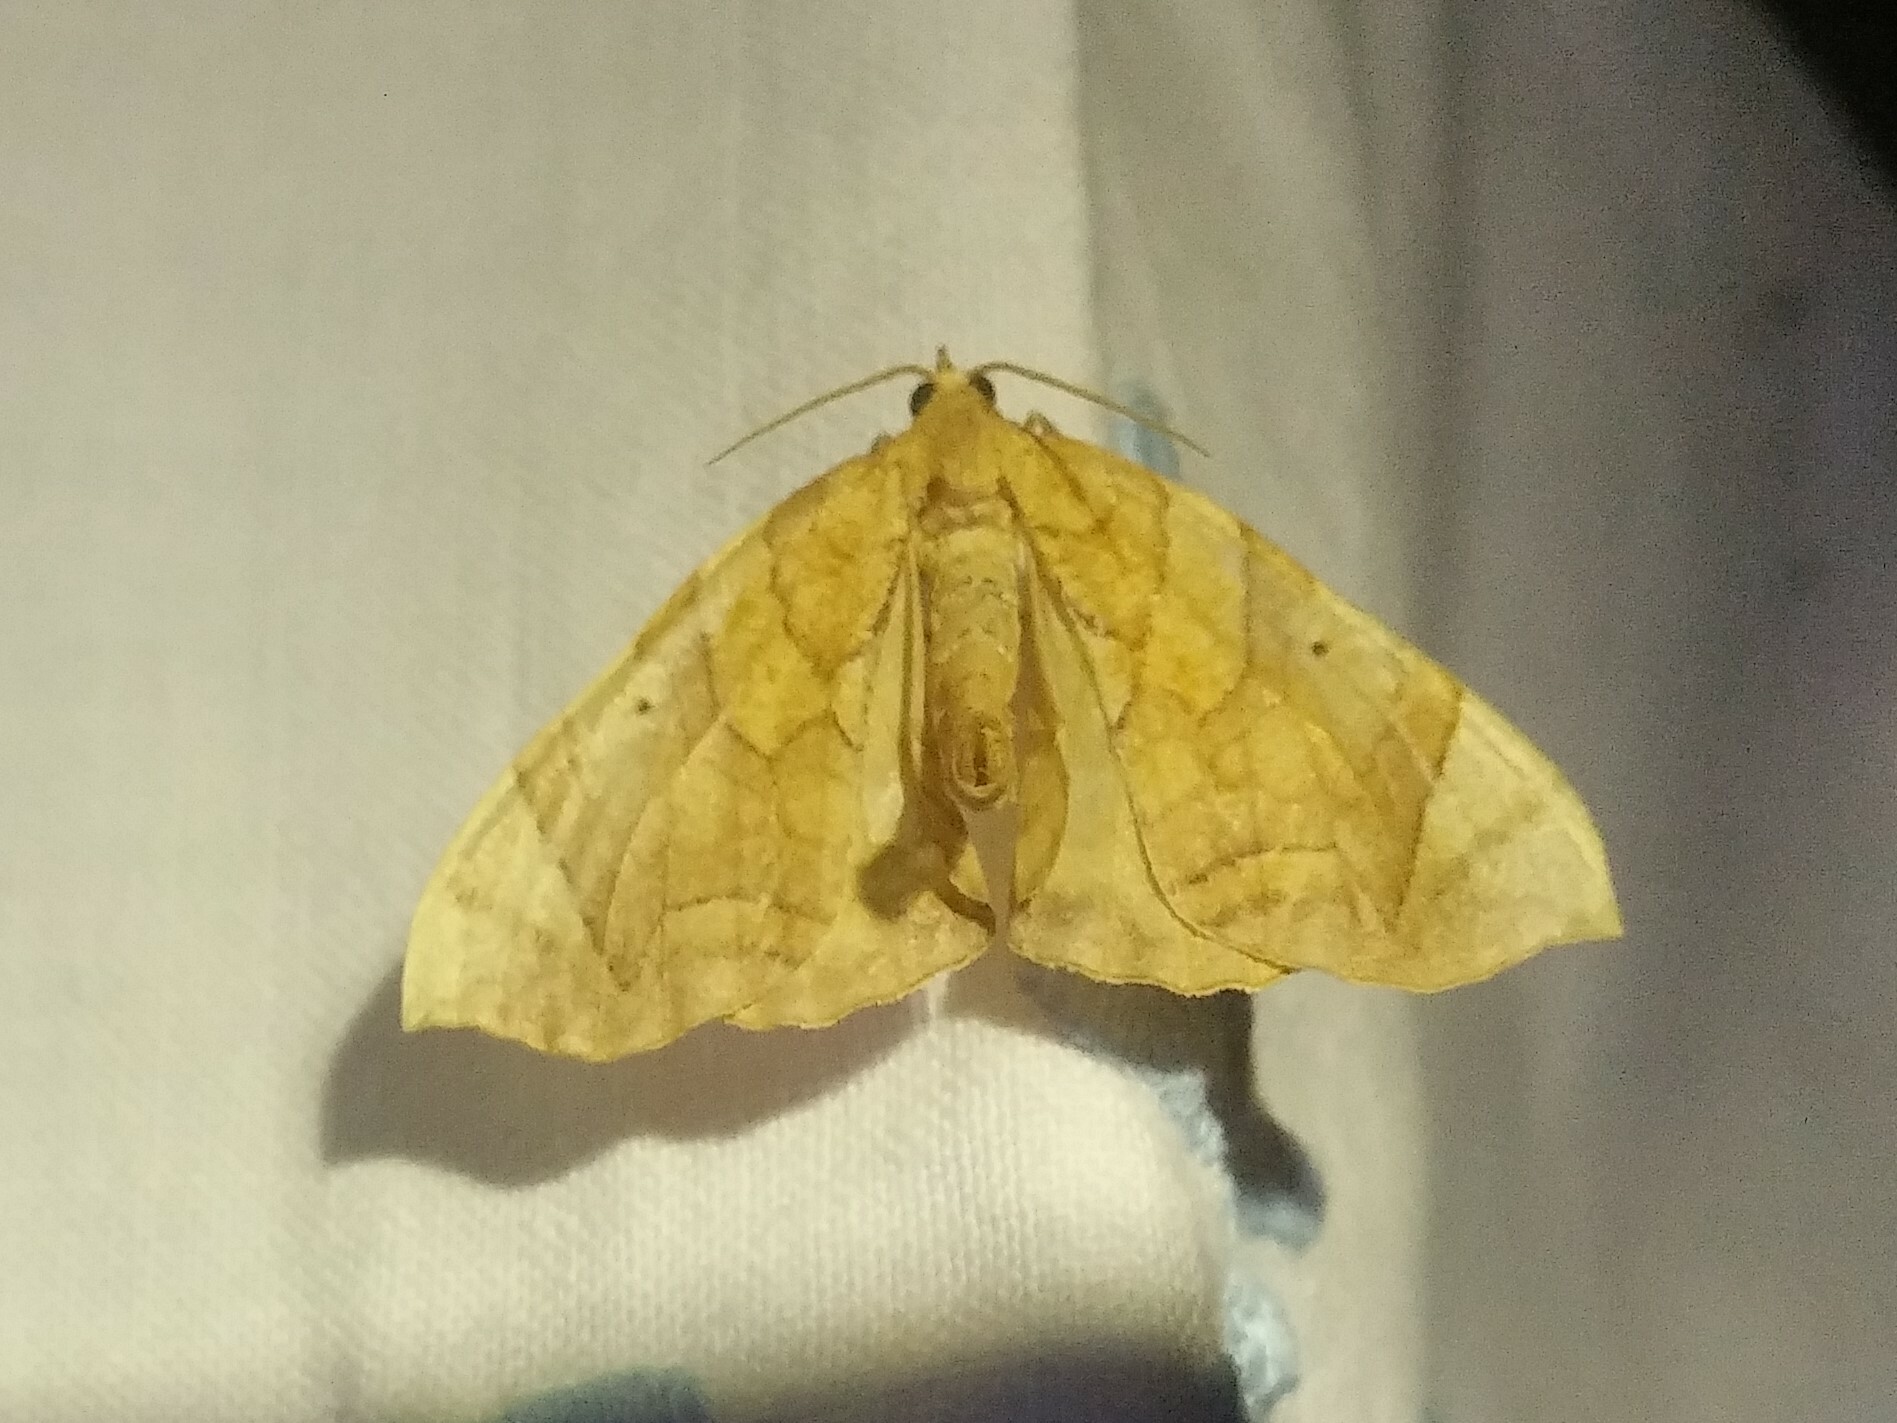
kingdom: Animalia
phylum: Arthropoda
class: Insecta
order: Lepidoptera
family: Geometridae
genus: Eulithis
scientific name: Eulithis
